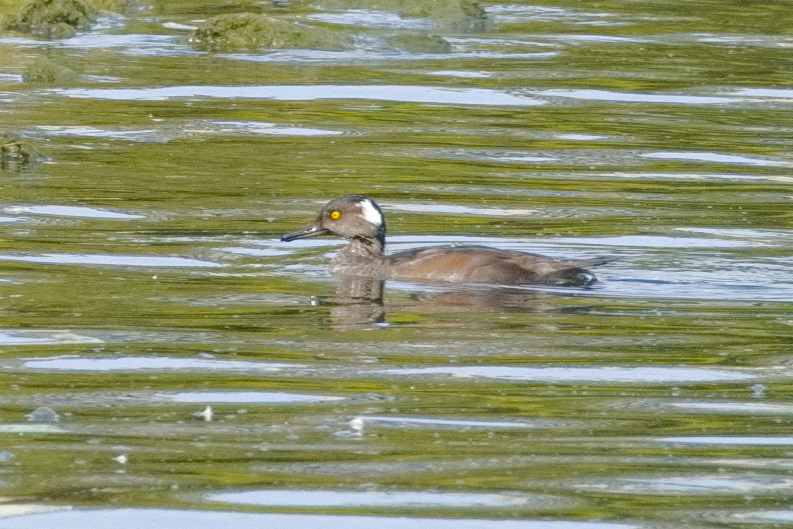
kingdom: Animalia
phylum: Chordata
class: Aves
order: Anseriformes
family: Anatidae
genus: Lophodytes
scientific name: Lophodytes cucullatus
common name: Hooded merganser
